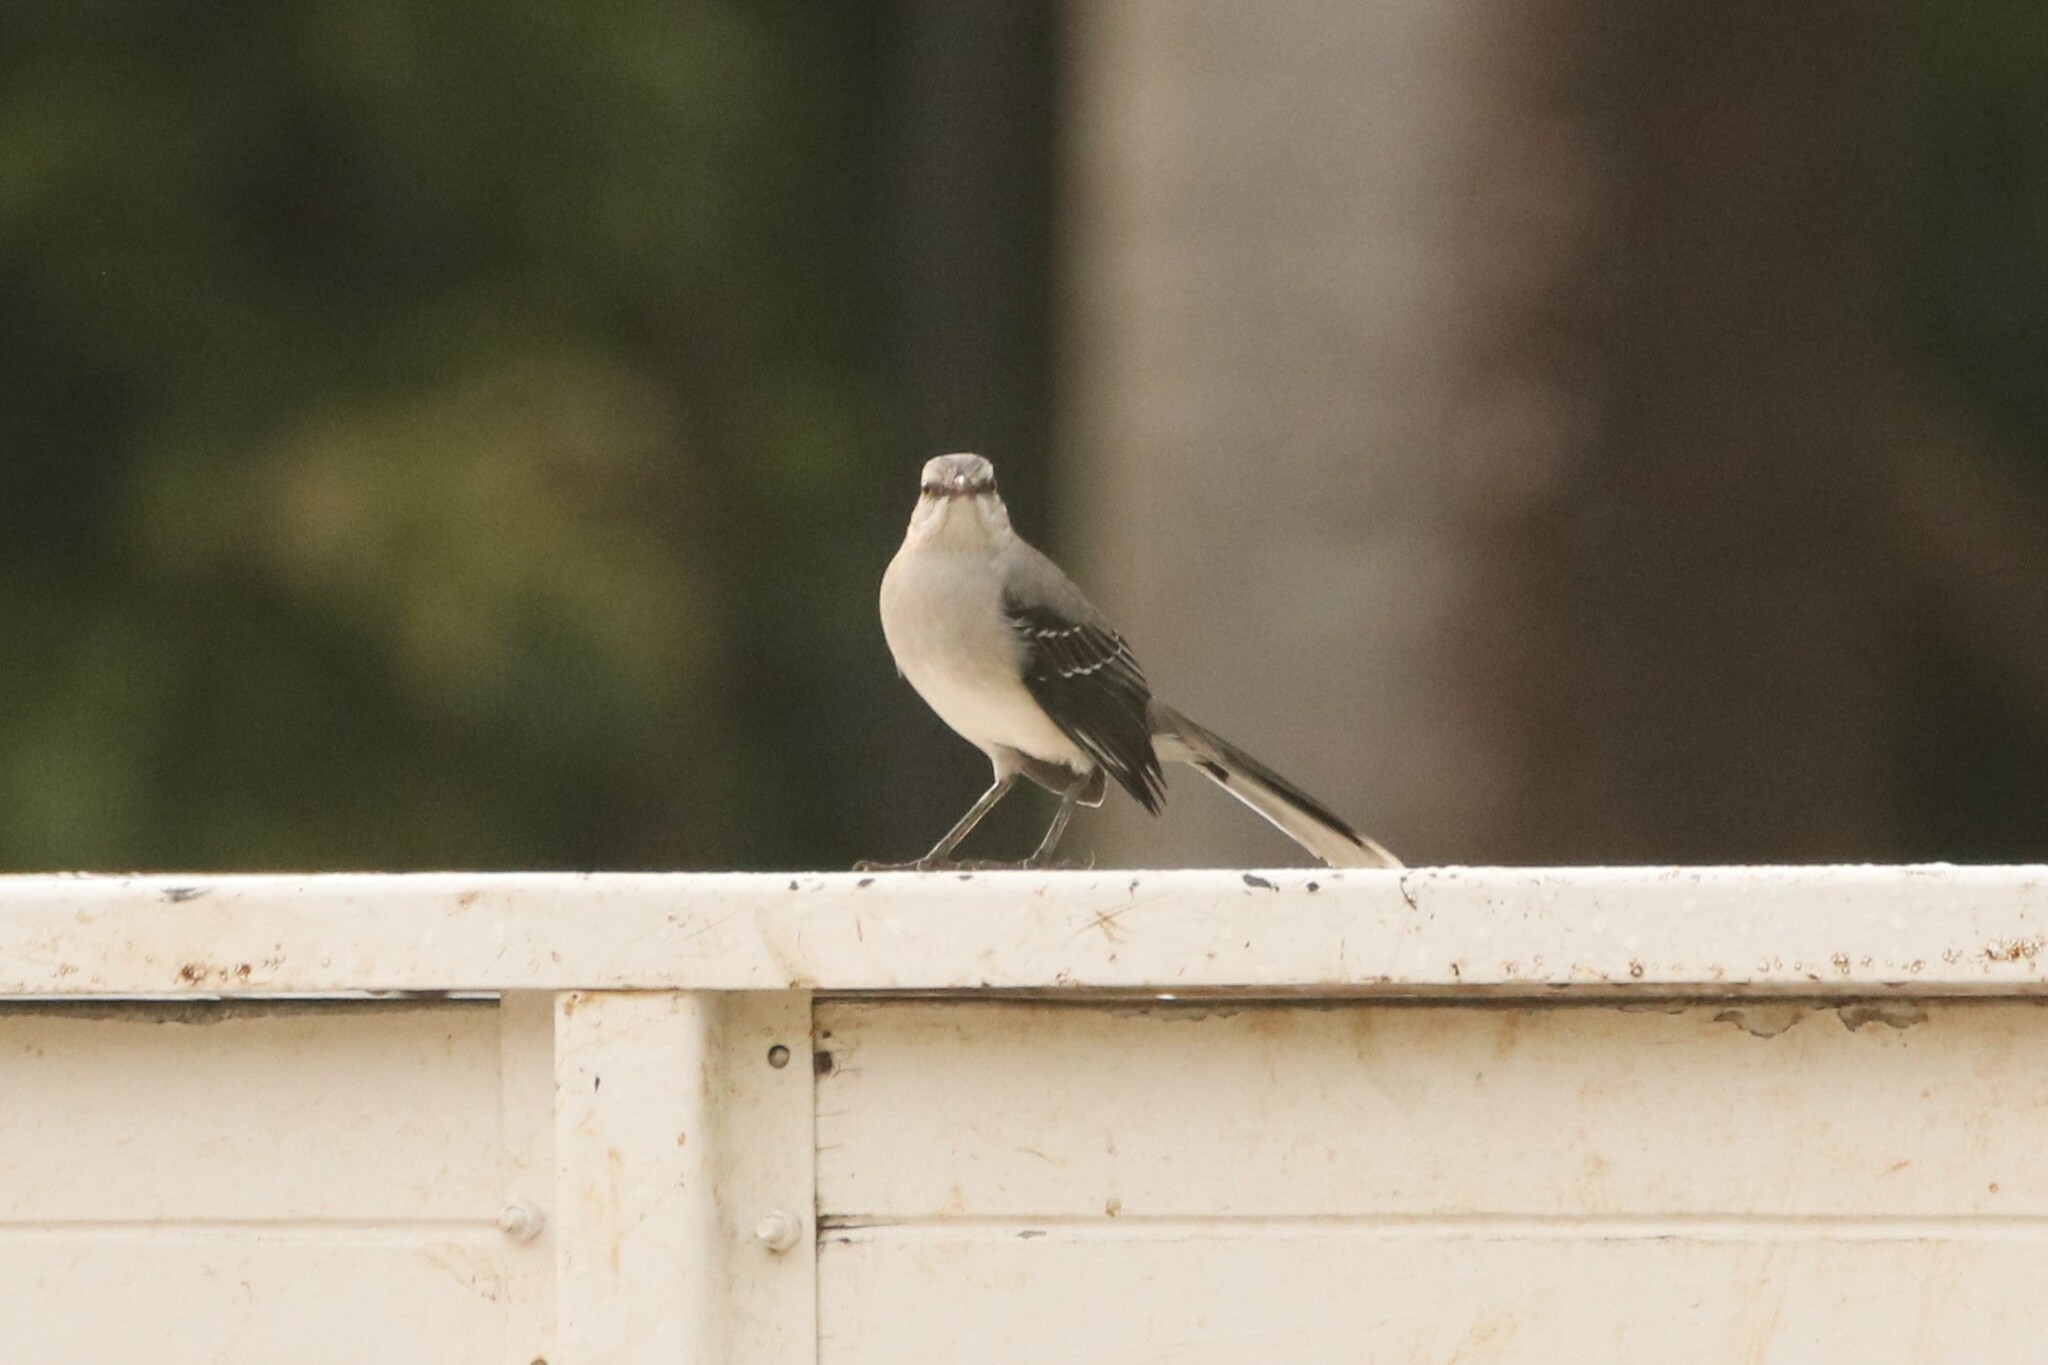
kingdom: Animalia
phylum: Chordata
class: Aves
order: Passeriformes
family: Mimidae
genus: Mimus
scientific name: Mimus gilvus
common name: Tropical mockingbird
